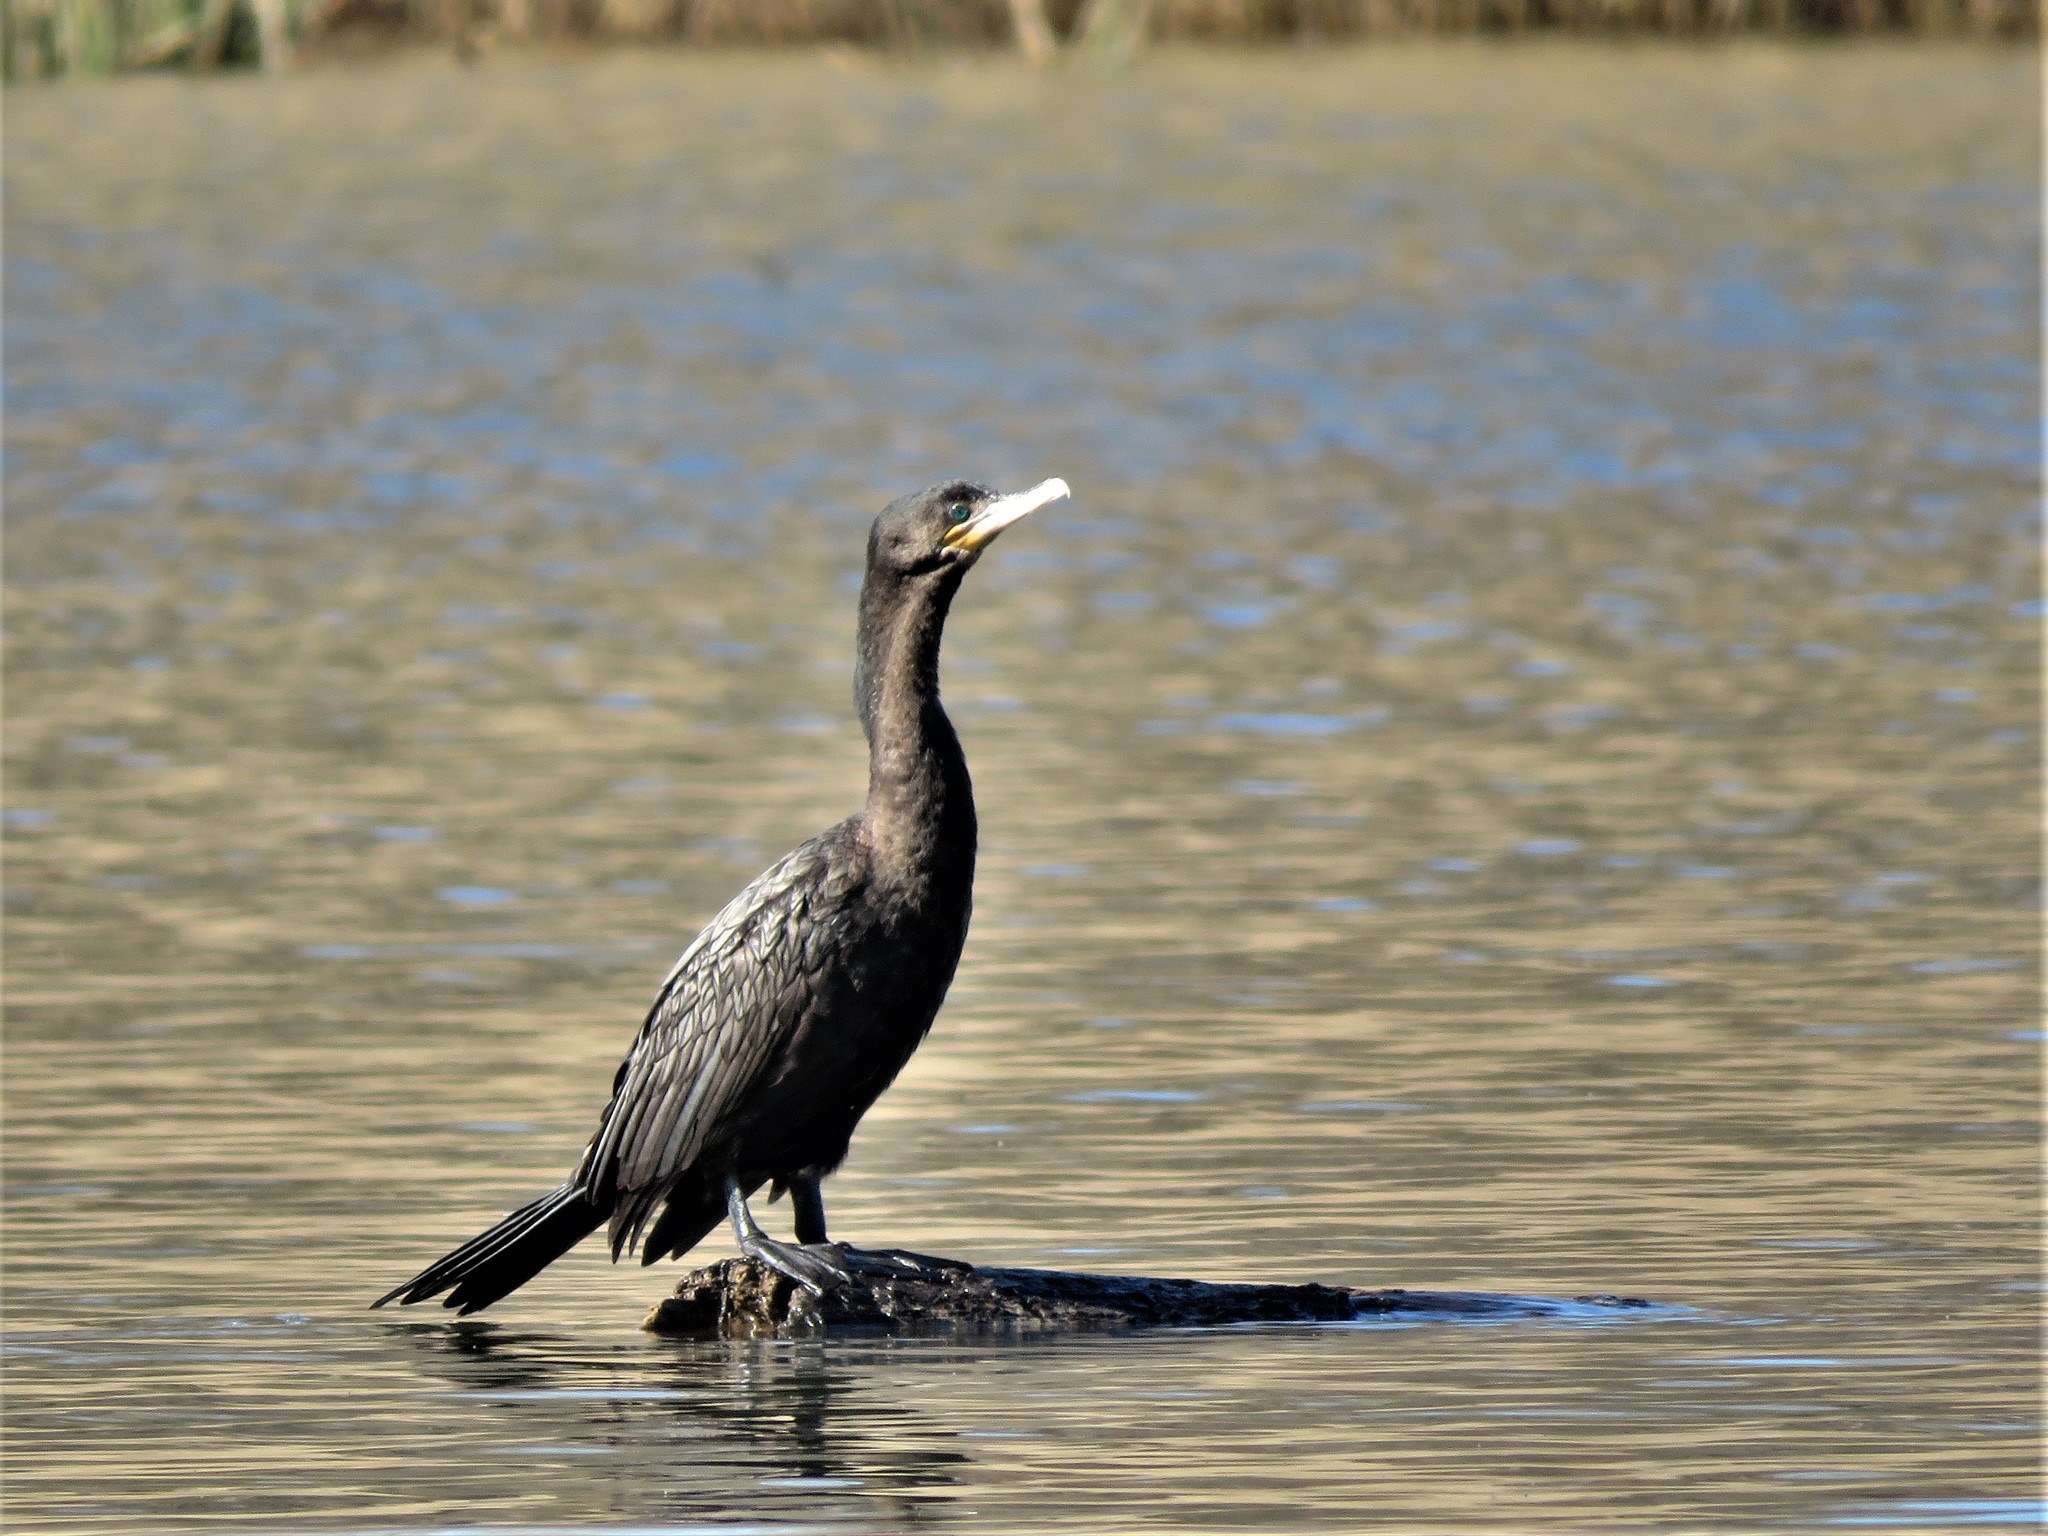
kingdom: Animalia
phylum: Chordata
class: Aves
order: Suliformes
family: Phalacrocoracidae
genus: Phalacrocorax
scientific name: Phalacrocorax brasilianus
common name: Neotropic cormorant
